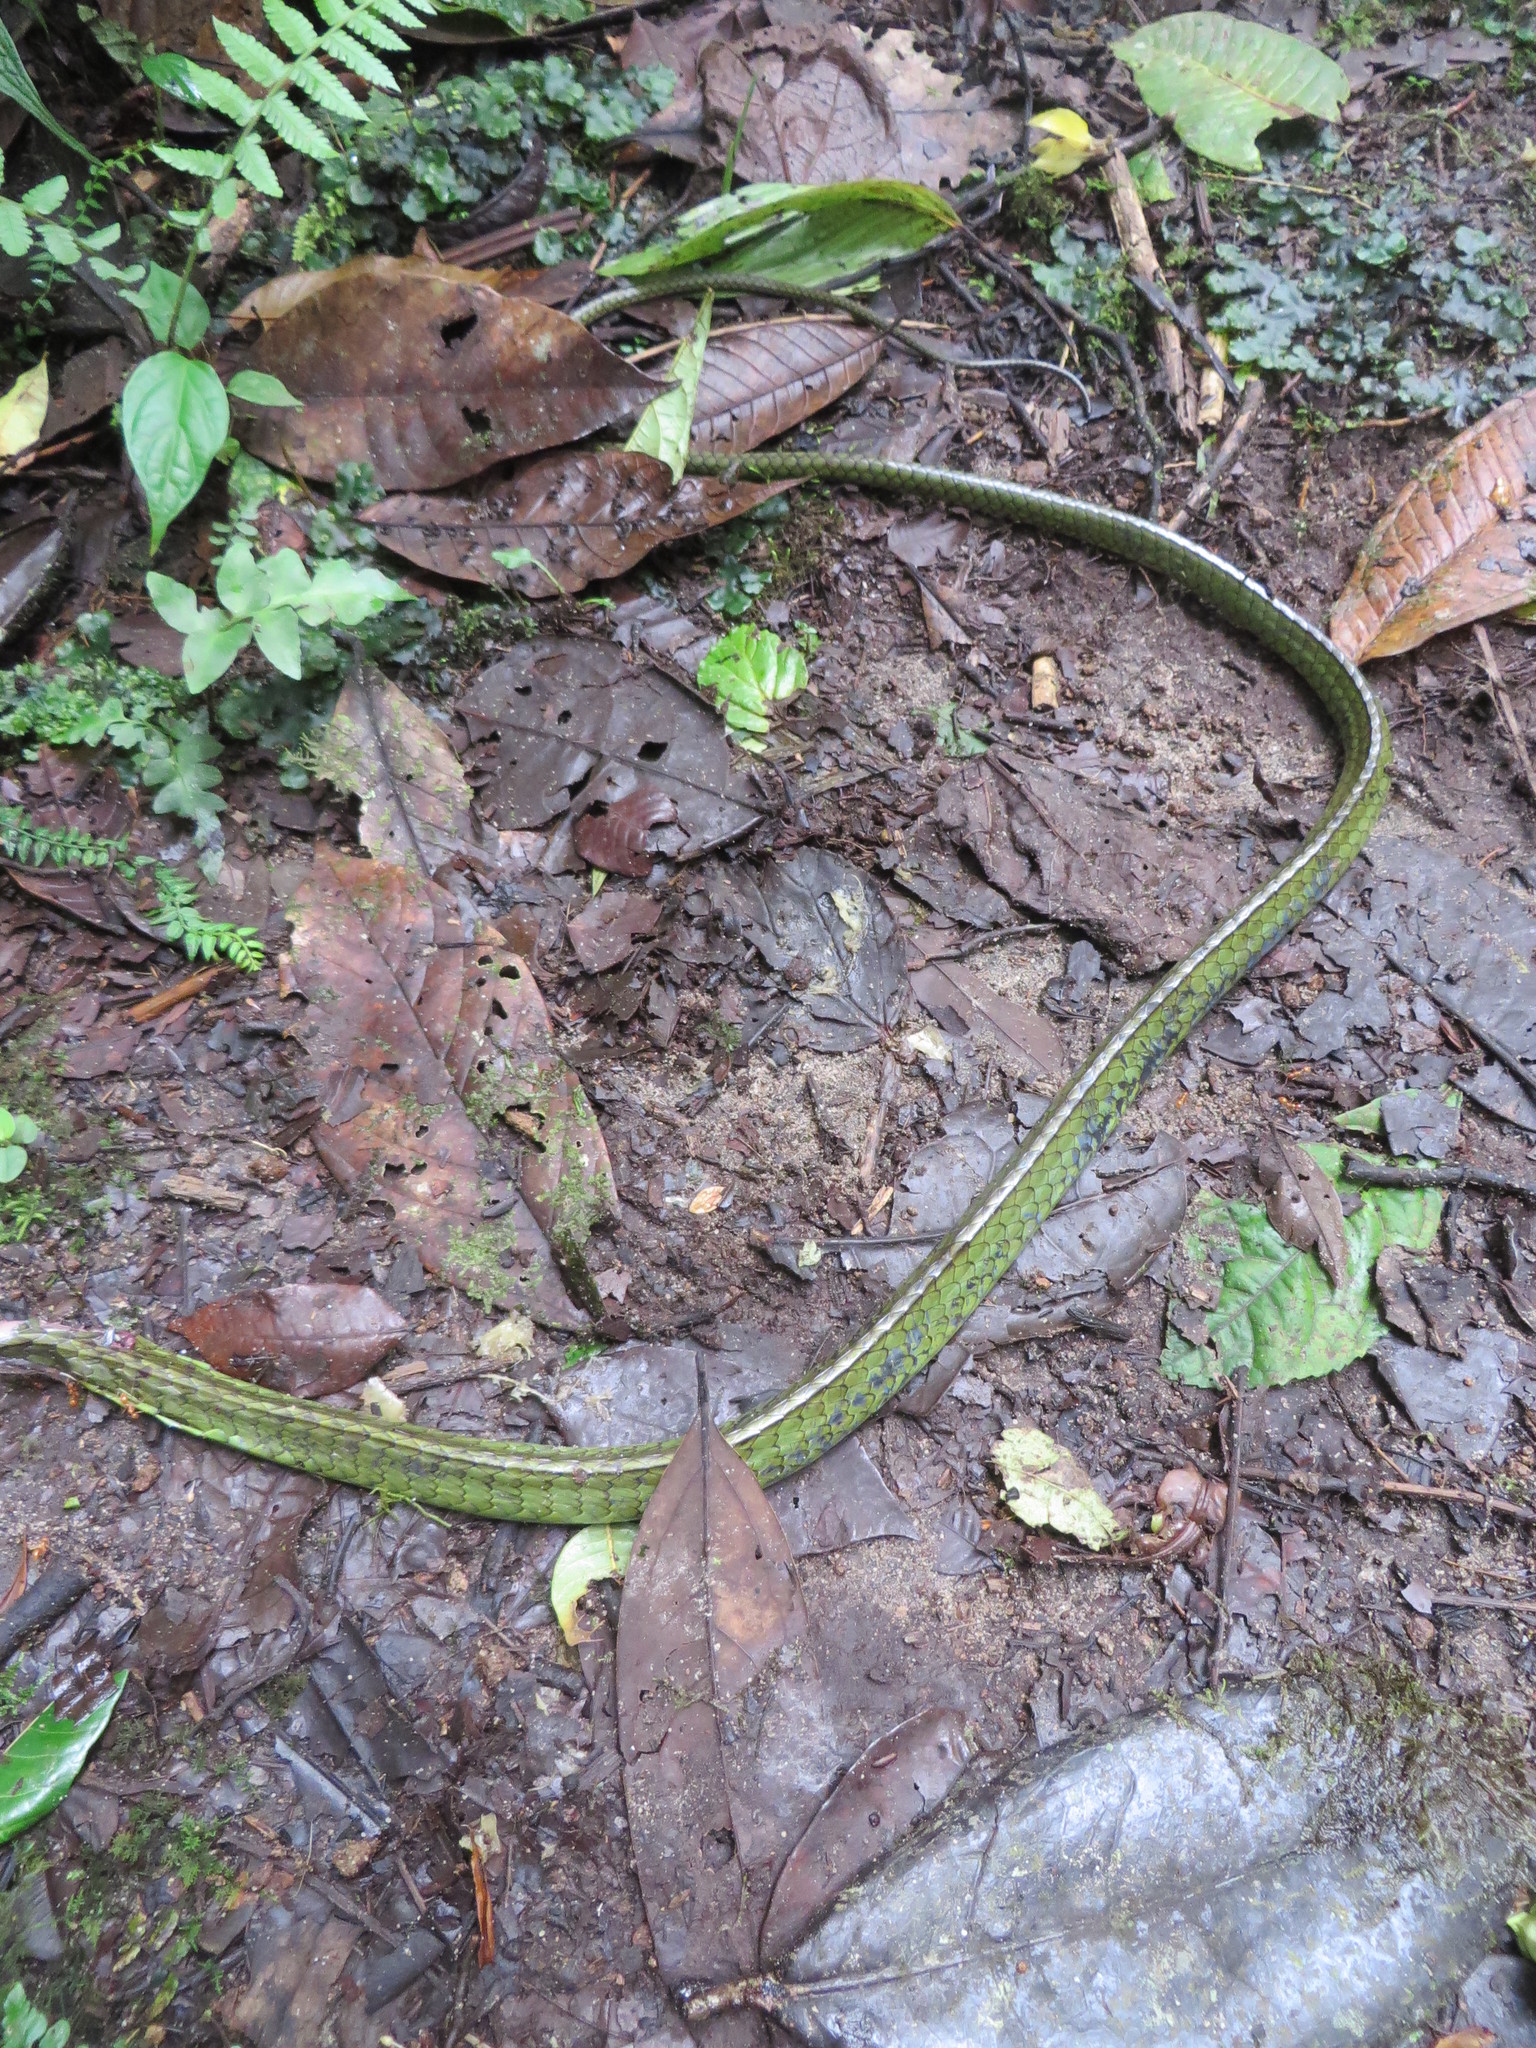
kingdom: Animalia
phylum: Chordata
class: Squamata
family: Colubridae
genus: Chironius
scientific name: Chironius exoletus
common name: Linnaeus' sipo
